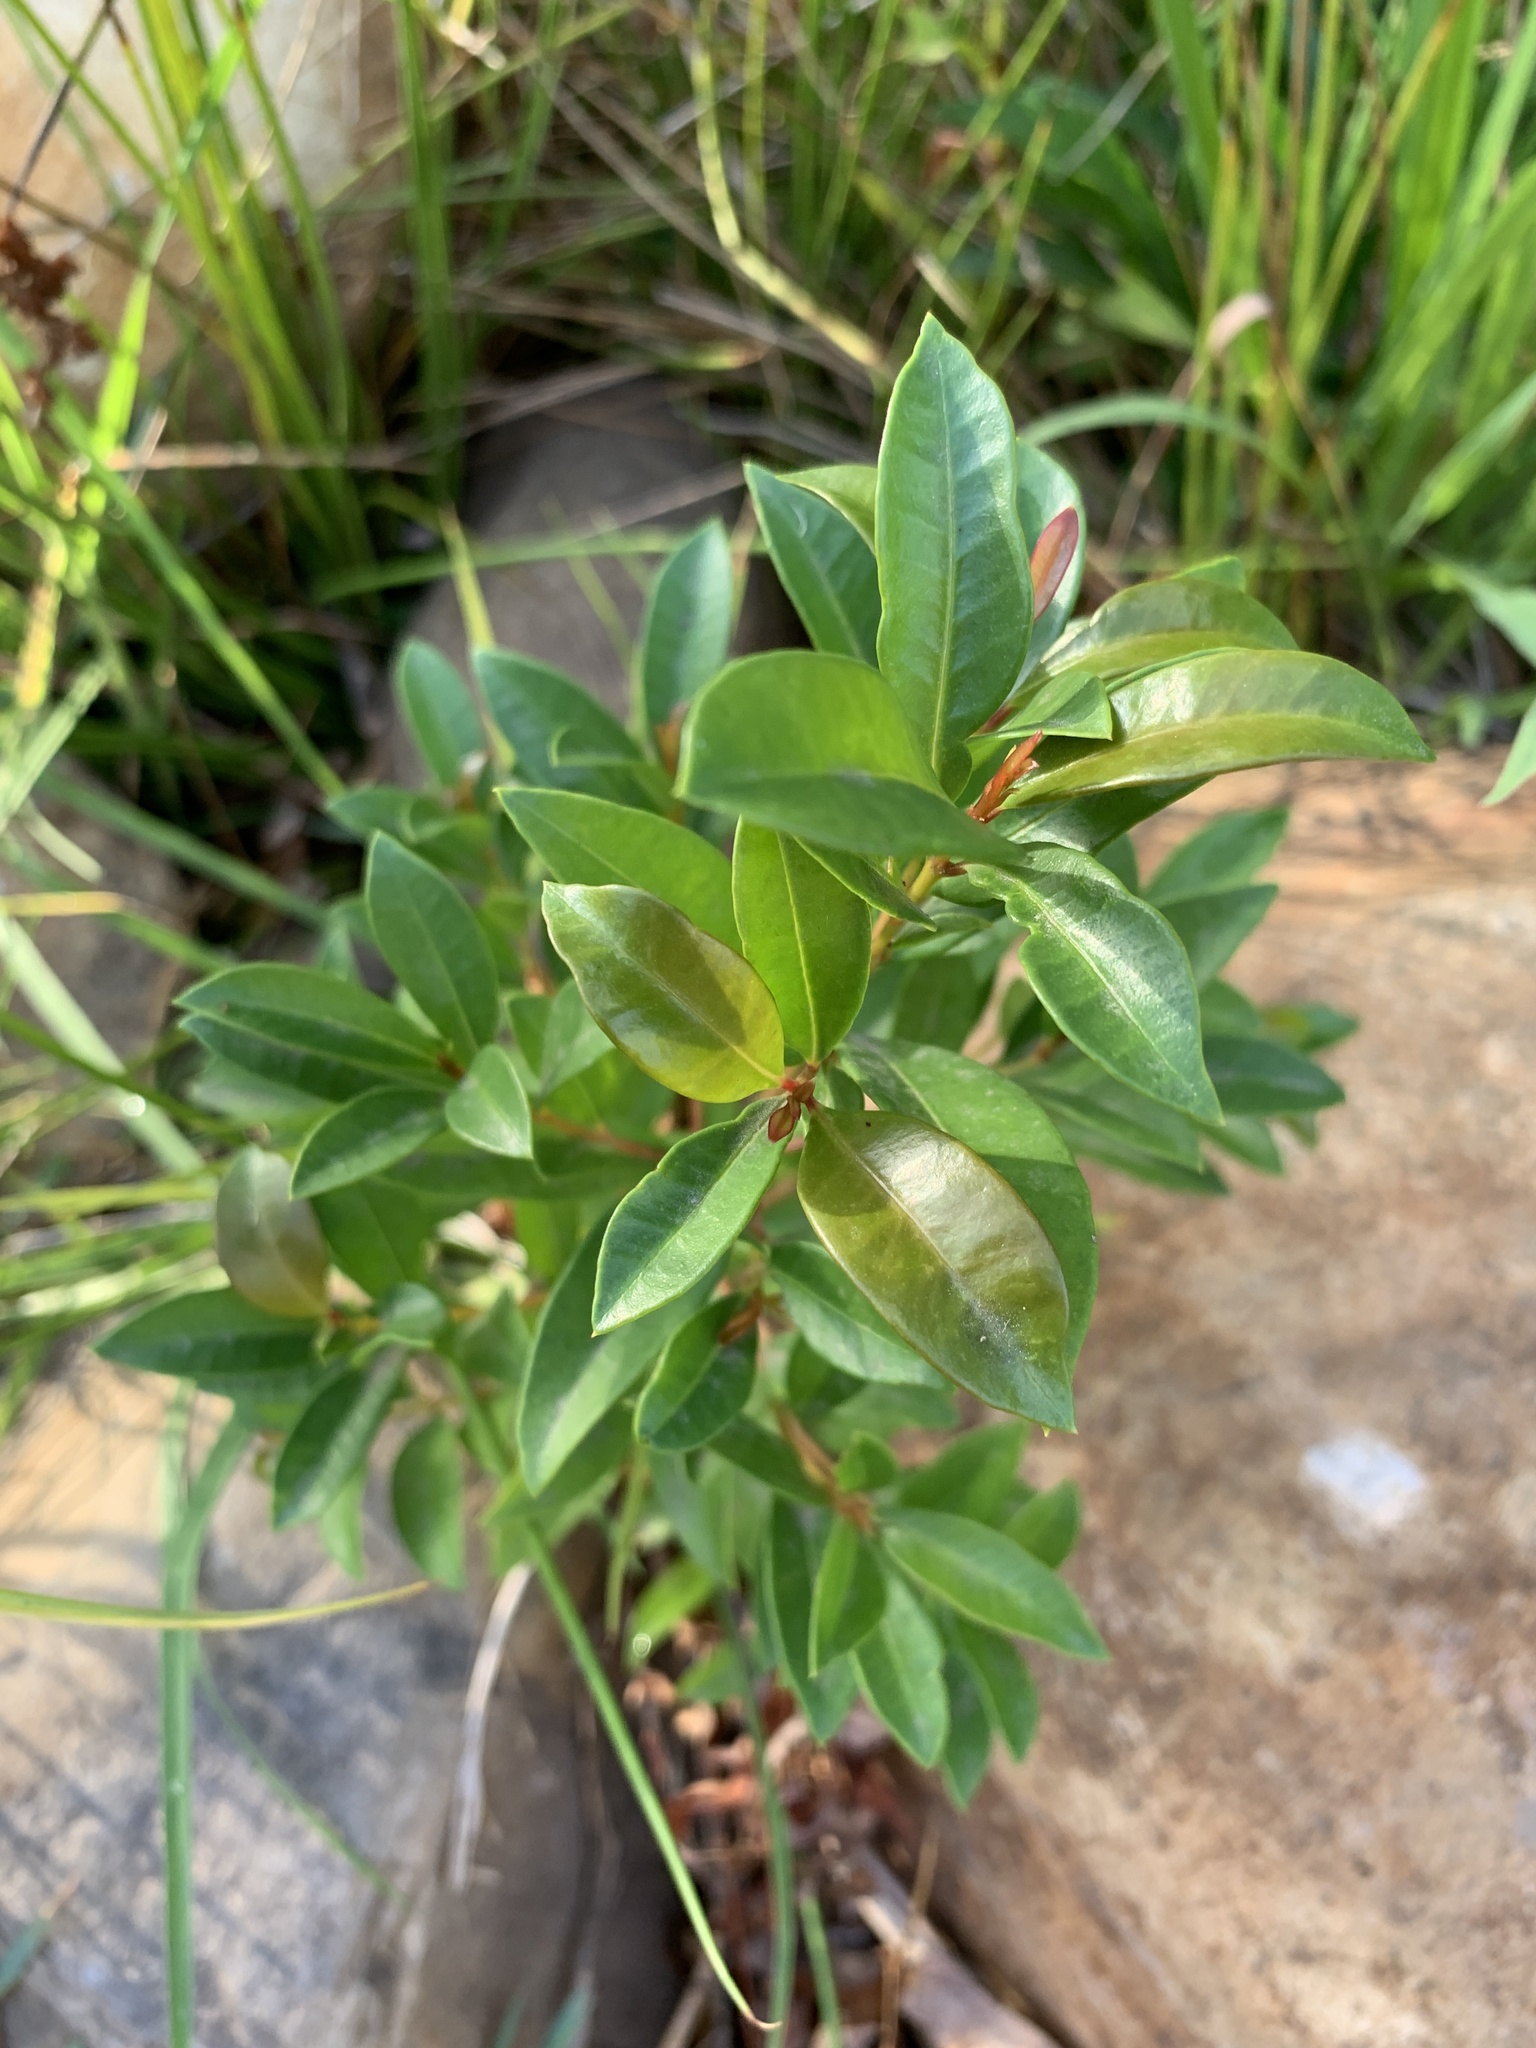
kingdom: Plantae
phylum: Tracheophyta
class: Magnoliopsida
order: Myrtales
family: Myrtaceae
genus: Syzygium
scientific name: Syzygium australe
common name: Australian brush-cherry
